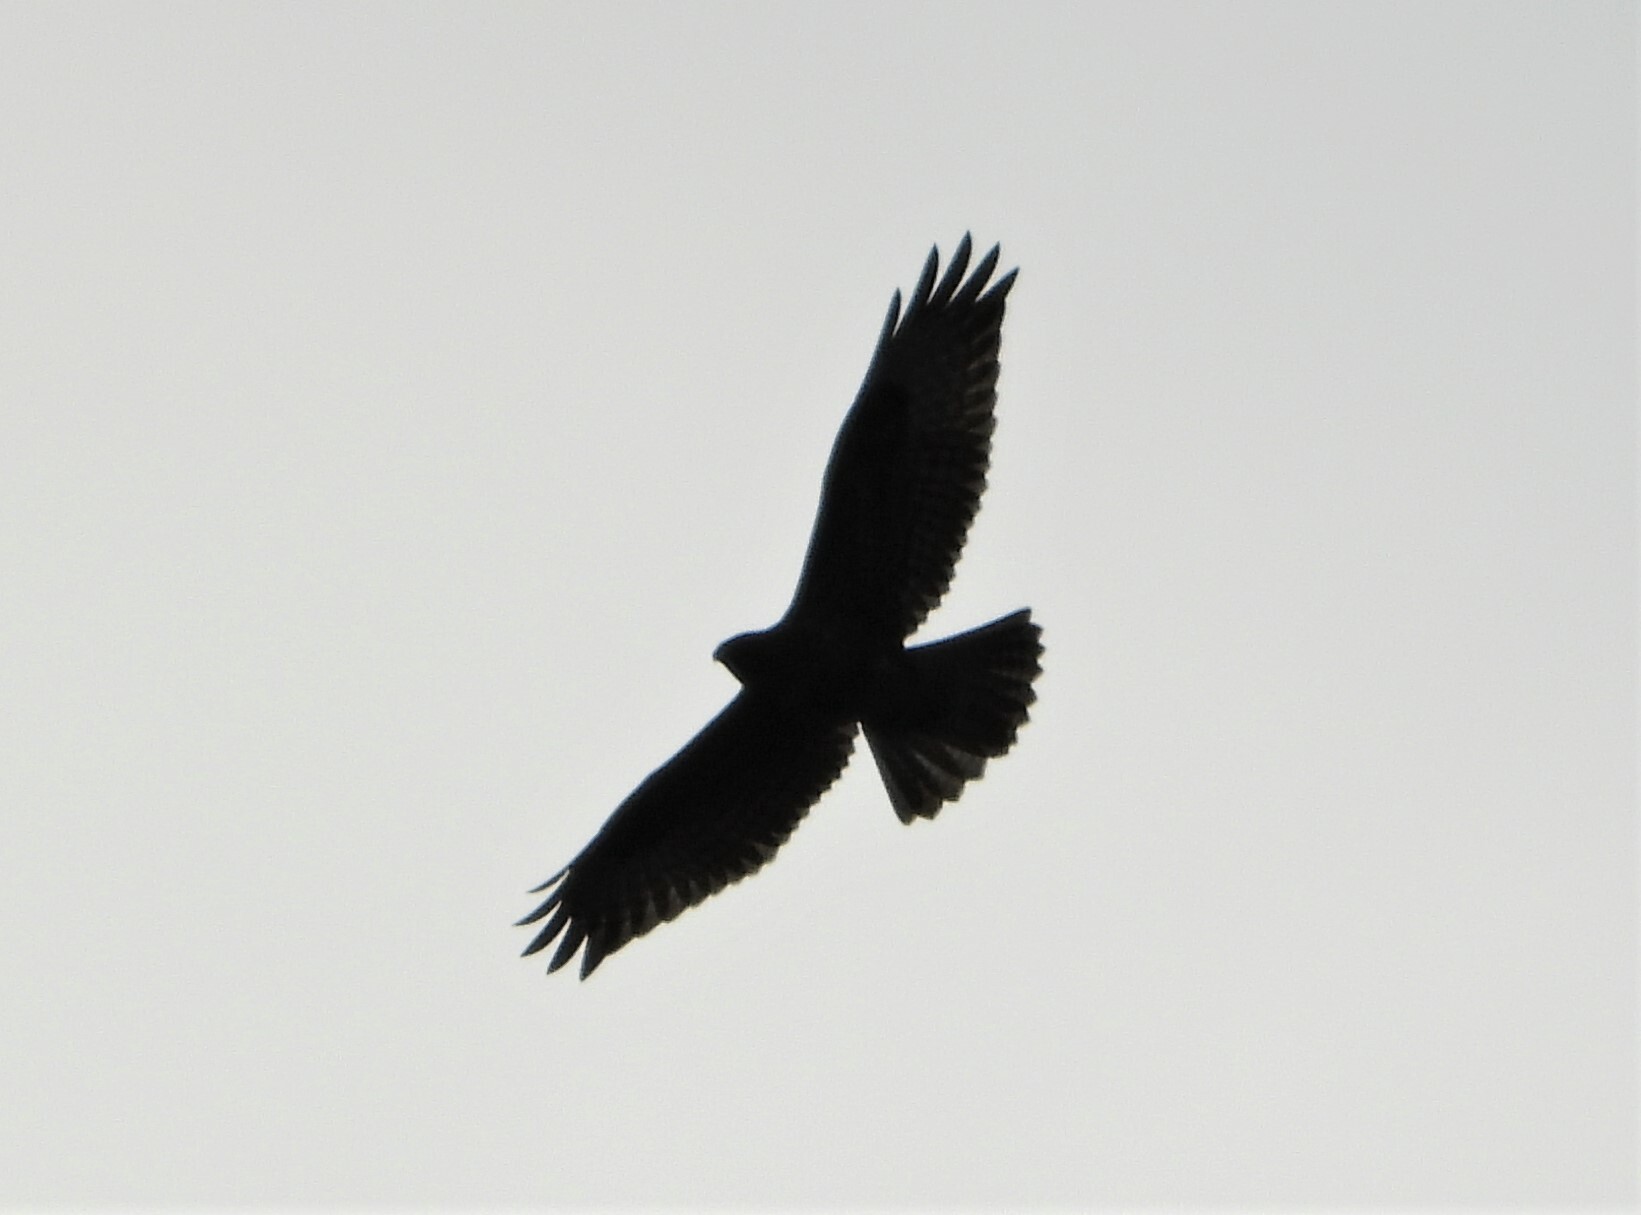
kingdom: Animalia
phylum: Chordata
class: Aves
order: Accipitriformes
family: Accipitridae
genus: Buteo
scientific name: Buteo buteo
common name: Common buzzard
